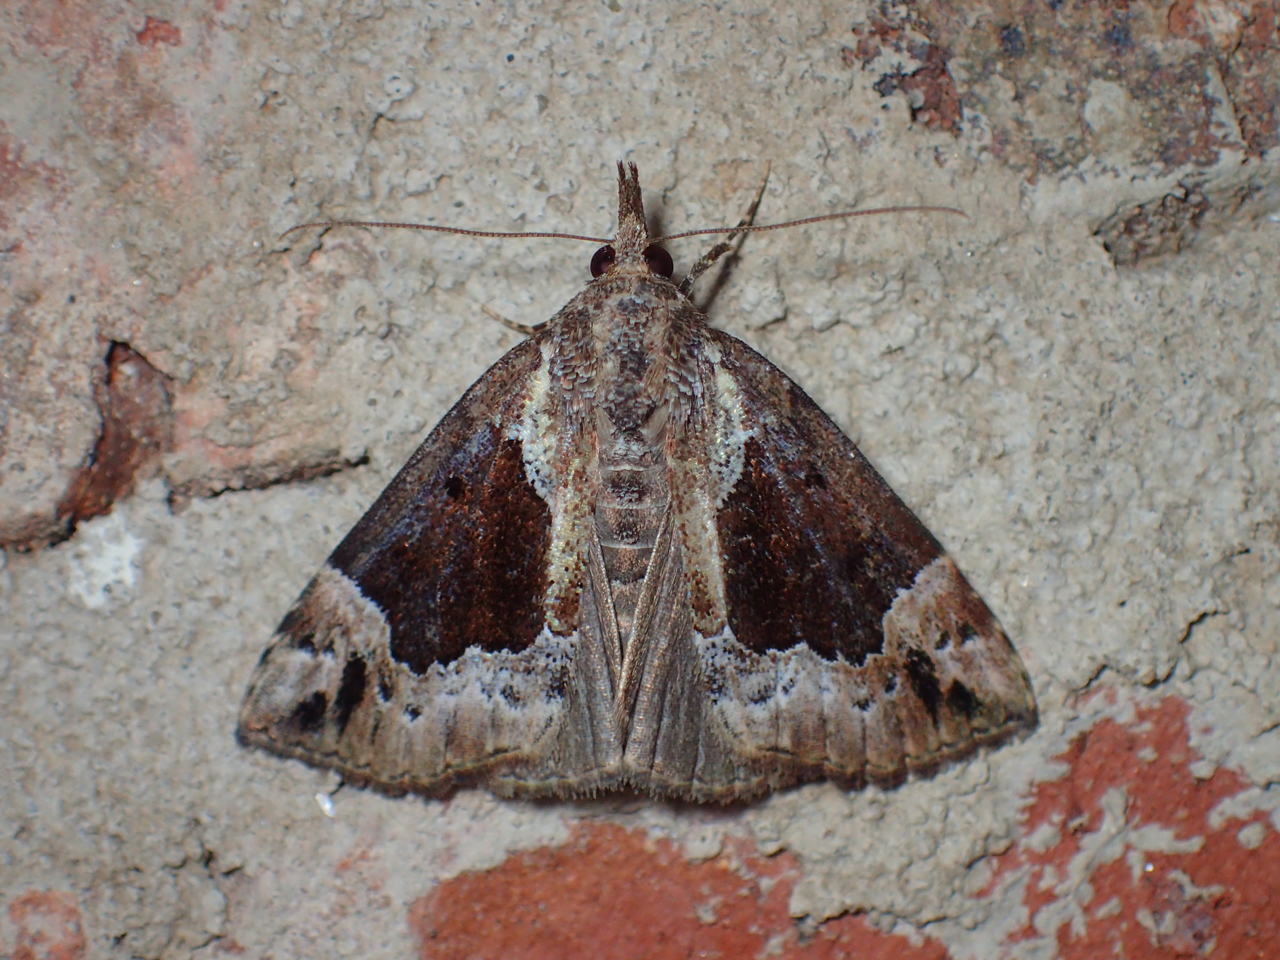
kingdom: Animalia
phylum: Arthropoda
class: Insecta
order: Lepidoptera
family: Erebidae
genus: Hypena
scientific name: Hypena palparia
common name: Mottled bomolocha moth
